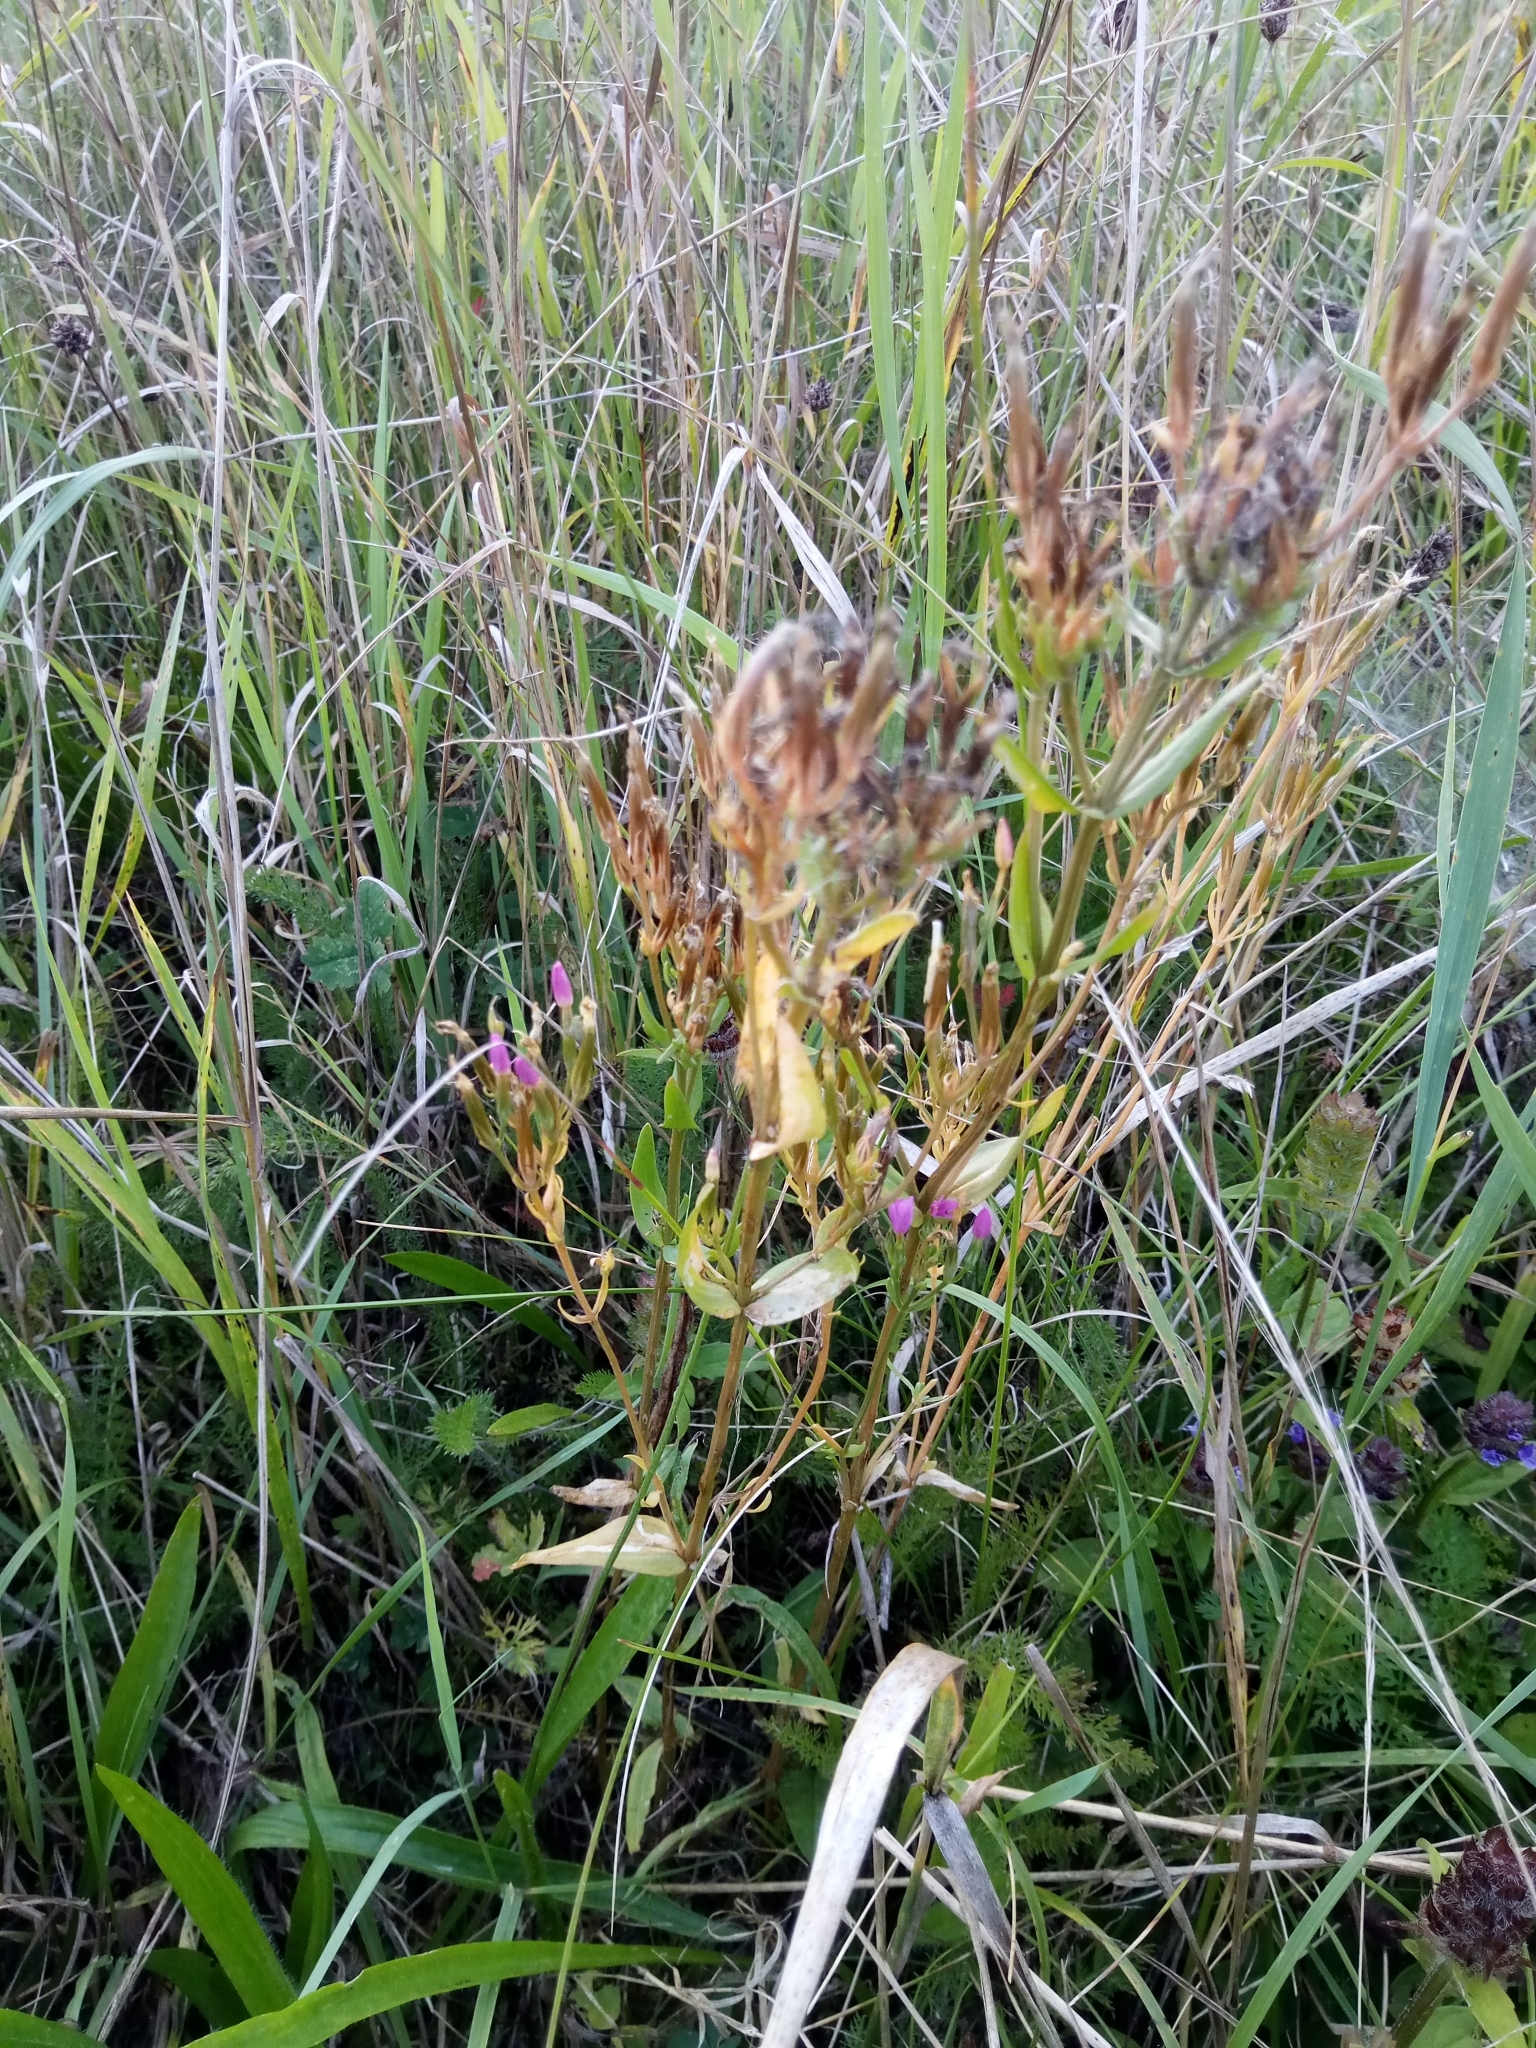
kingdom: Plantae
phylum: Tracheophyta
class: Magnoliopsida
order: Gentianales
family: Gentianaceae
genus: Centaurium
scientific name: Centaurium erythraea
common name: Common centaury
